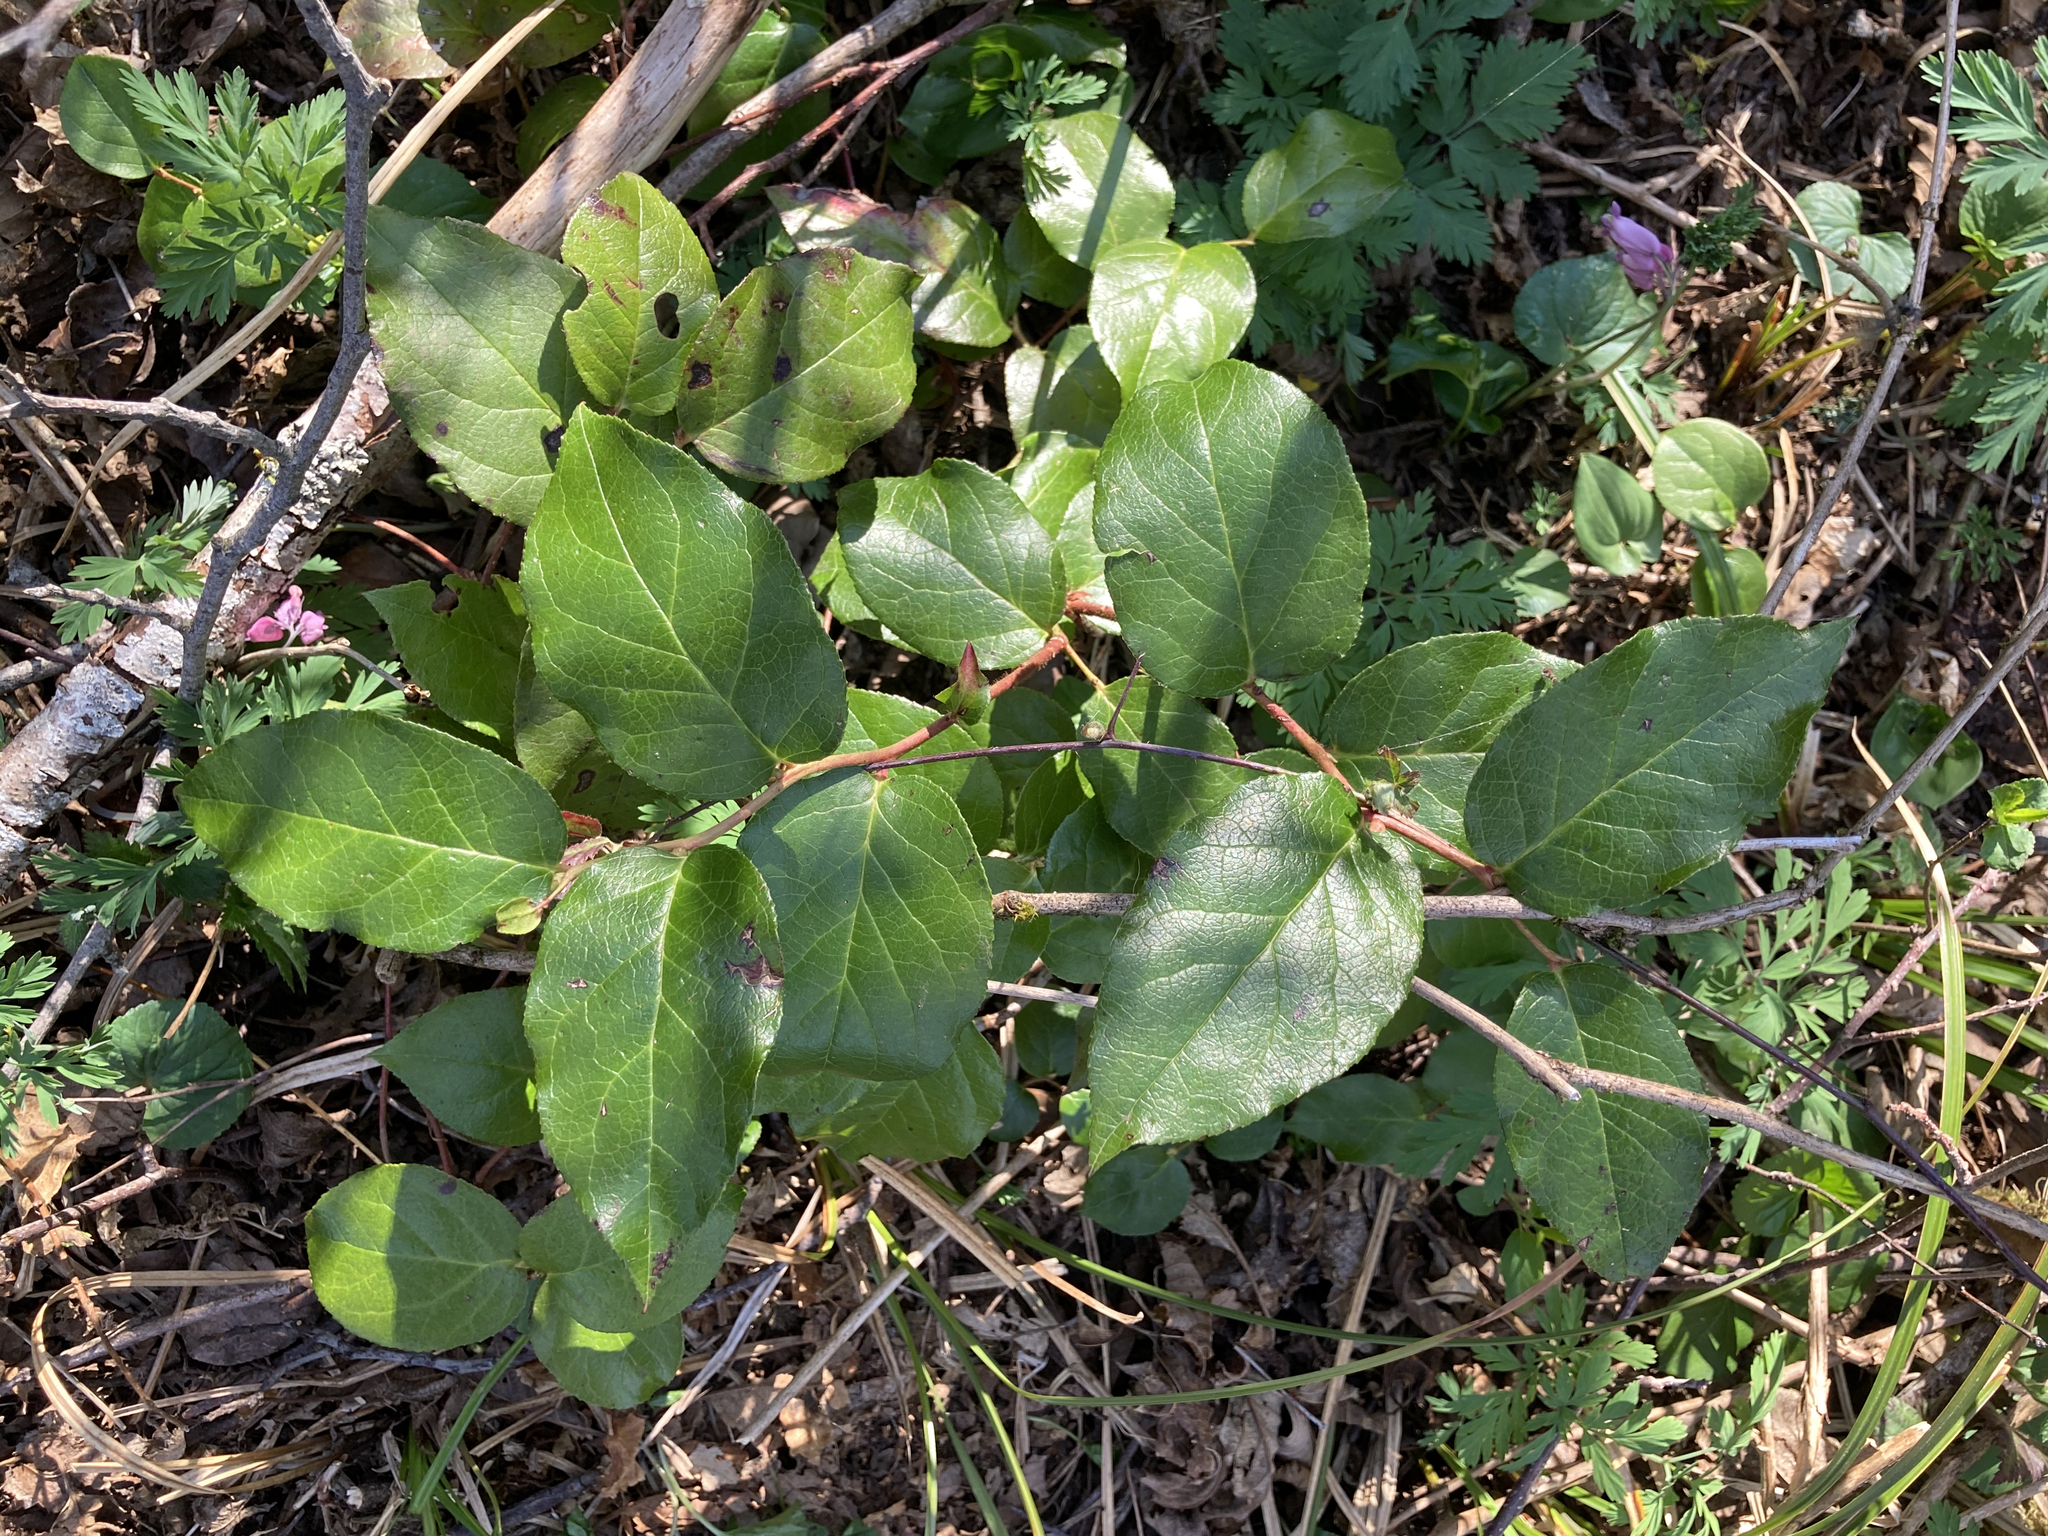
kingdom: Plantae
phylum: Tracheophyta
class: Magnoliopsida
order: Ericales
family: Ericaceae
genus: Gaultheria
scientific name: Gaultheria shallon
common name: Shallon
